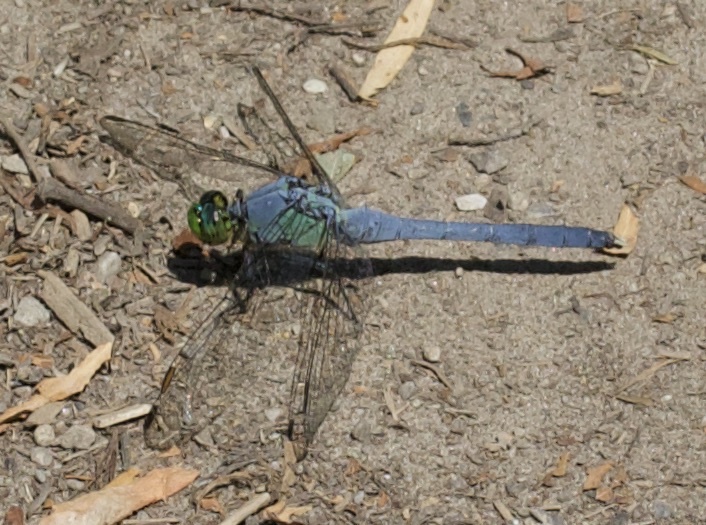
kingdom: Animalia
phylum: Arthropoda
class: Insecta
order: Odonata
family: Libellulidae
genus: Erythemis
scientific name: Erythemis simplicicollis
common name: Eastern pondhawk
